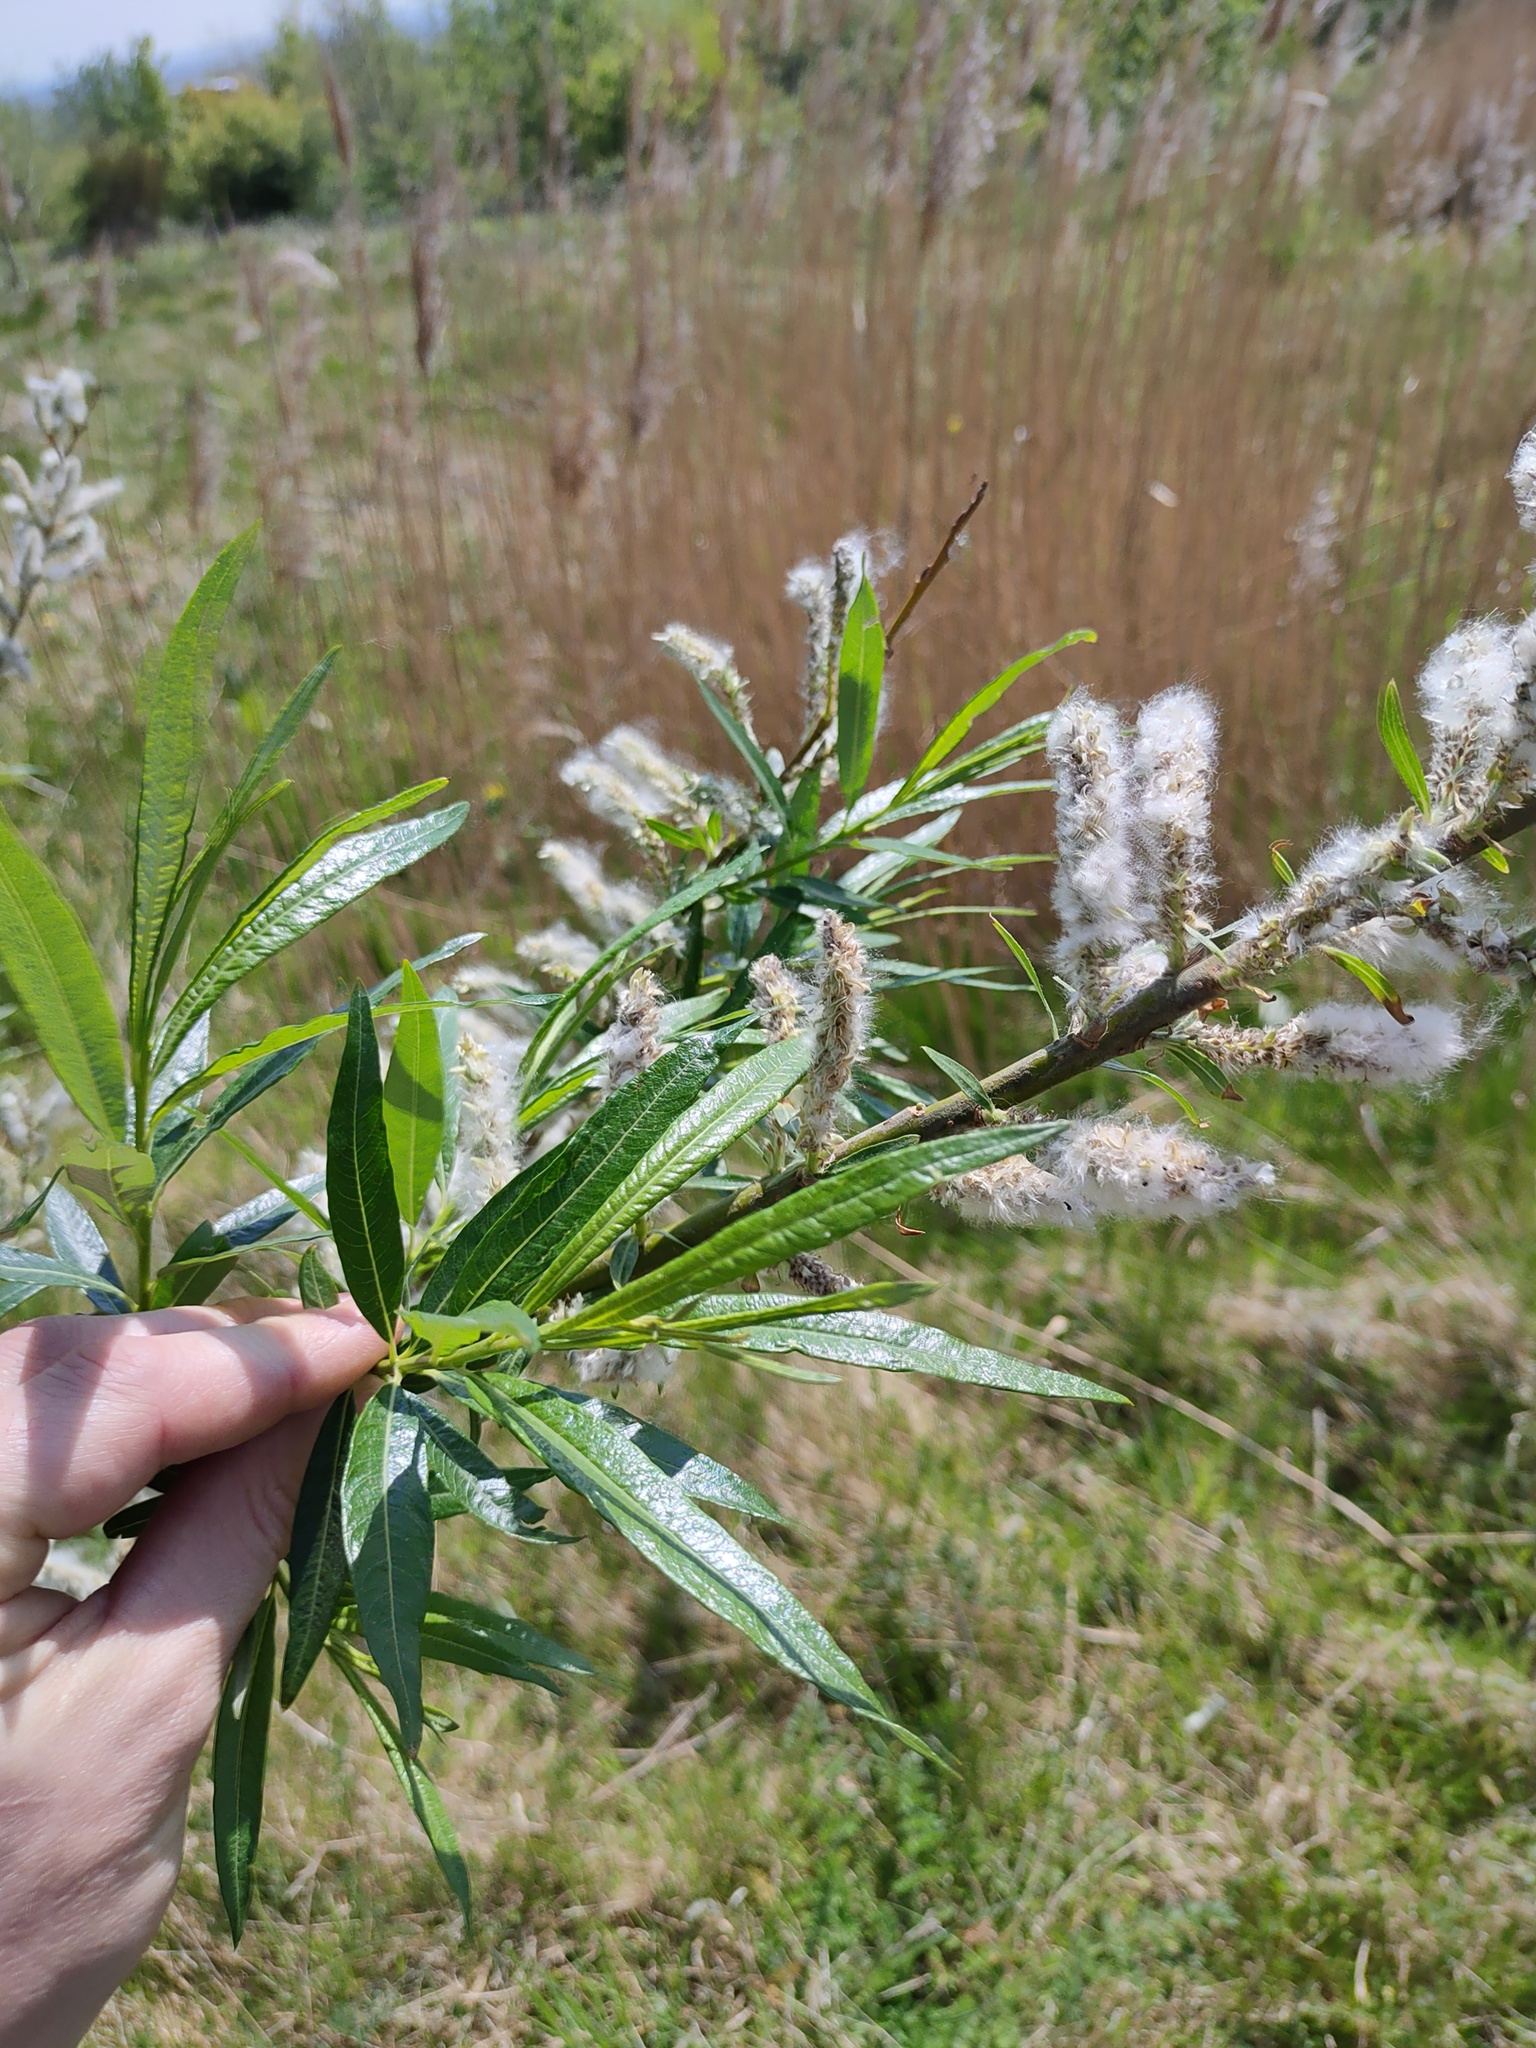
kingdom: Plantae
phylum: Tracheophyta
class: Magnoliopsida
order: Malpighiales
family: Salicaceae
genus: Salix
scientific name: Salix viminalis
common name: Osier
